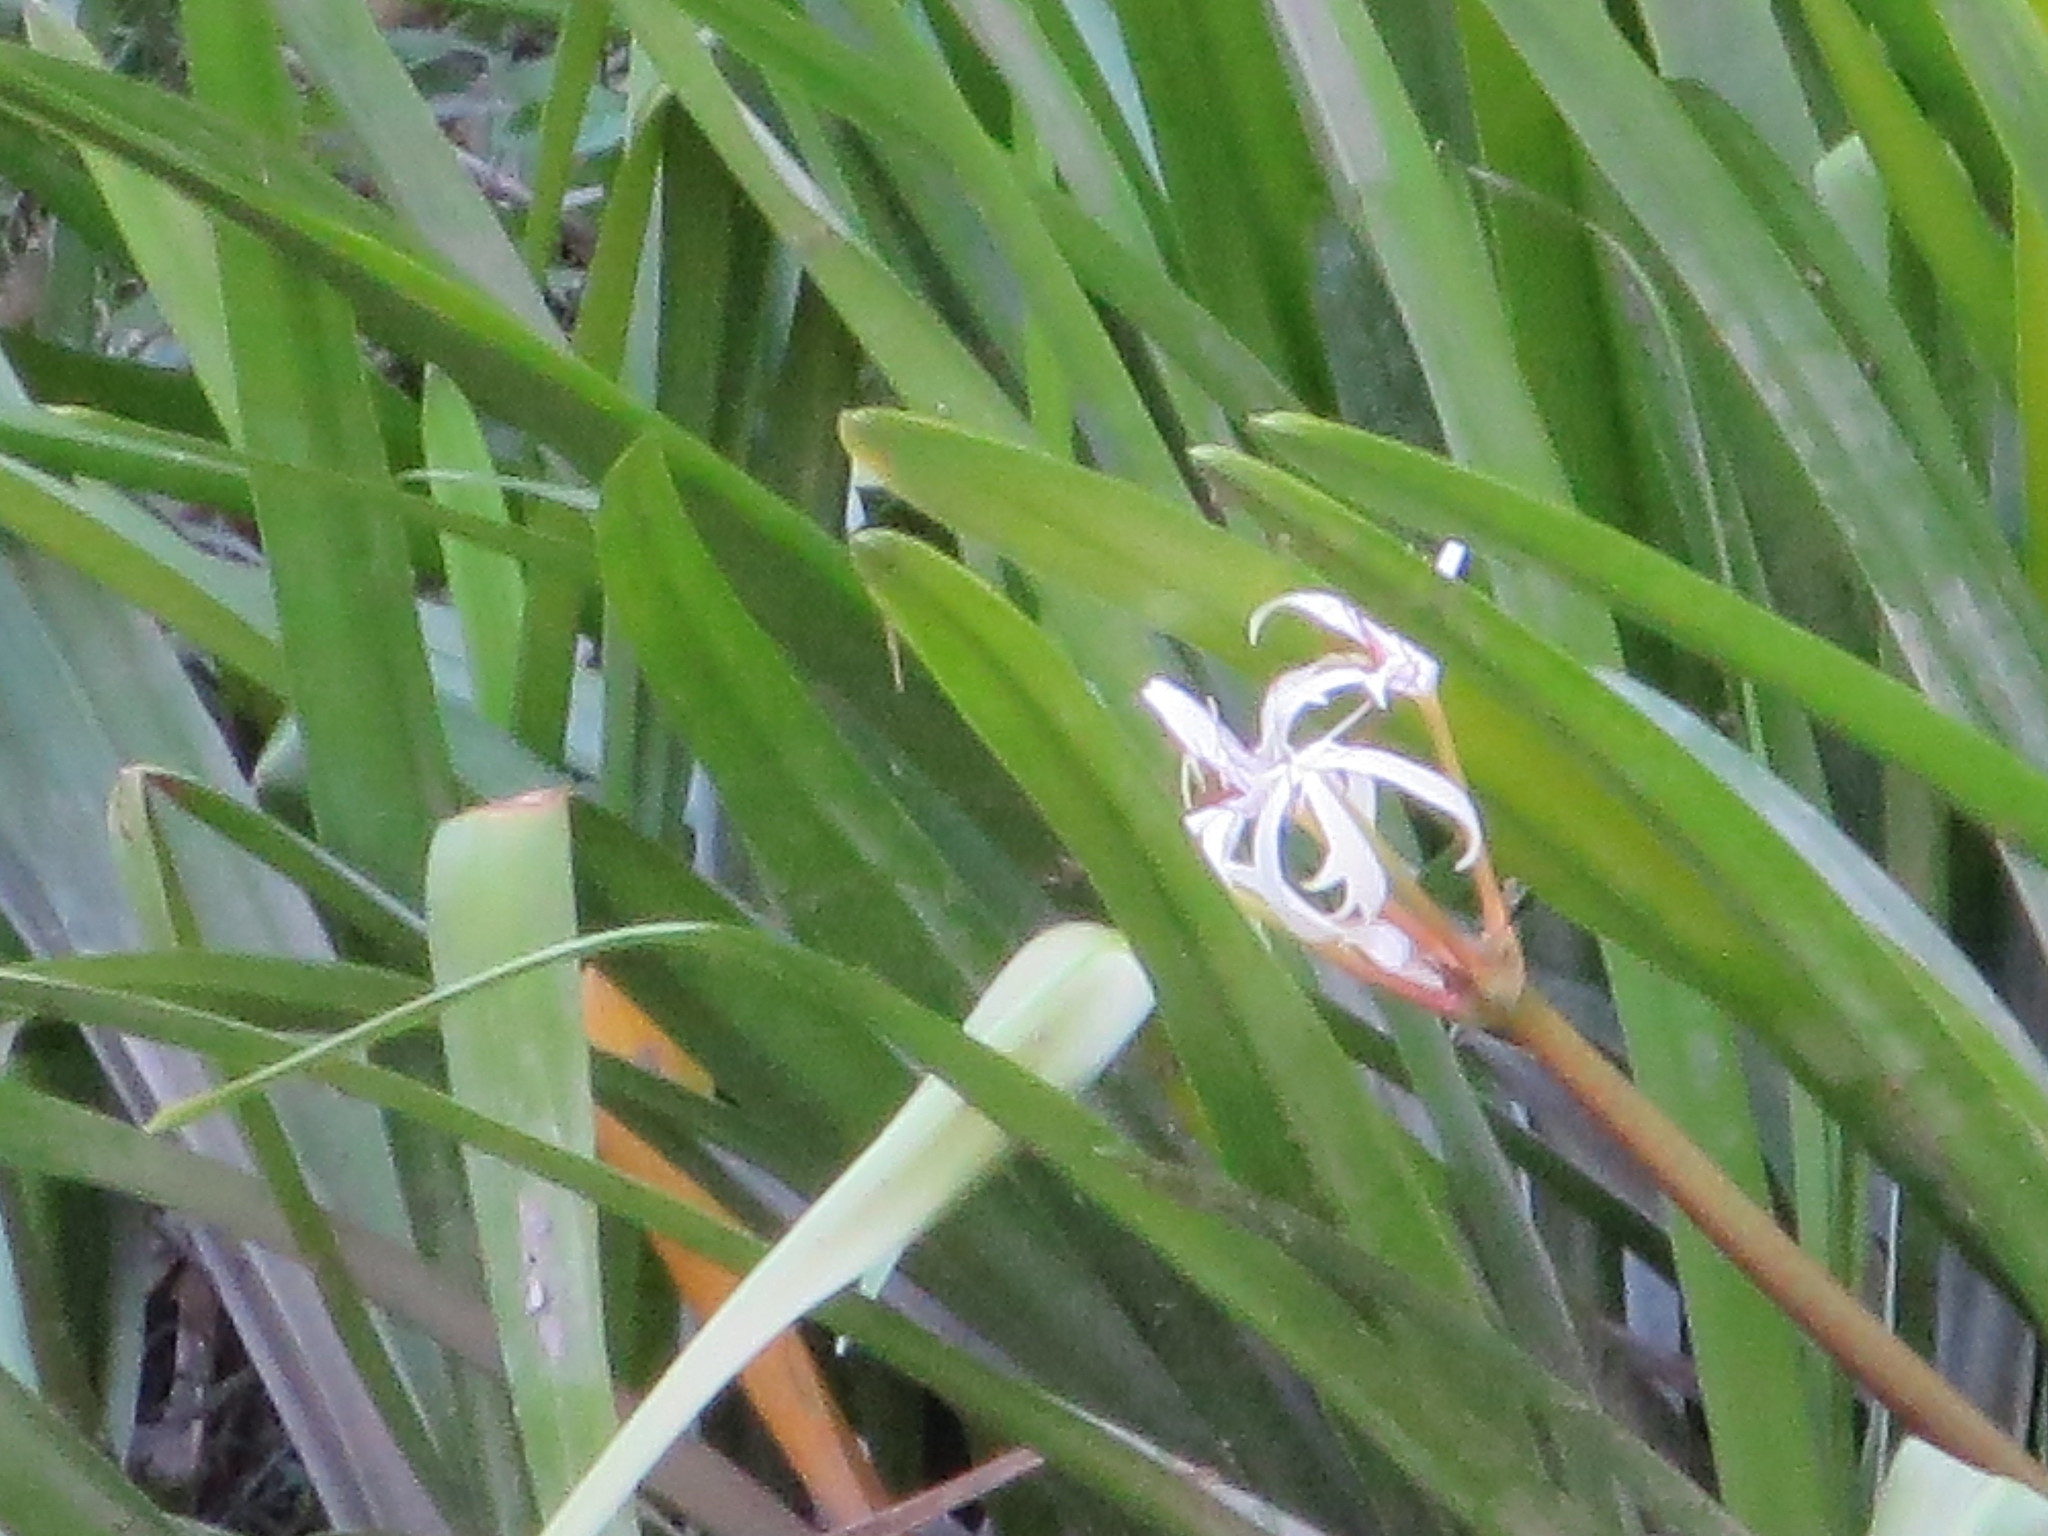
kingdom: Plantae
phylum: Tracheophyta
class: Liliopsida
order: Asparagales
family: Amaryllidaceae
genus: Crinum
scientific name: Crinum americanum
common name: Florida swamp-lily
